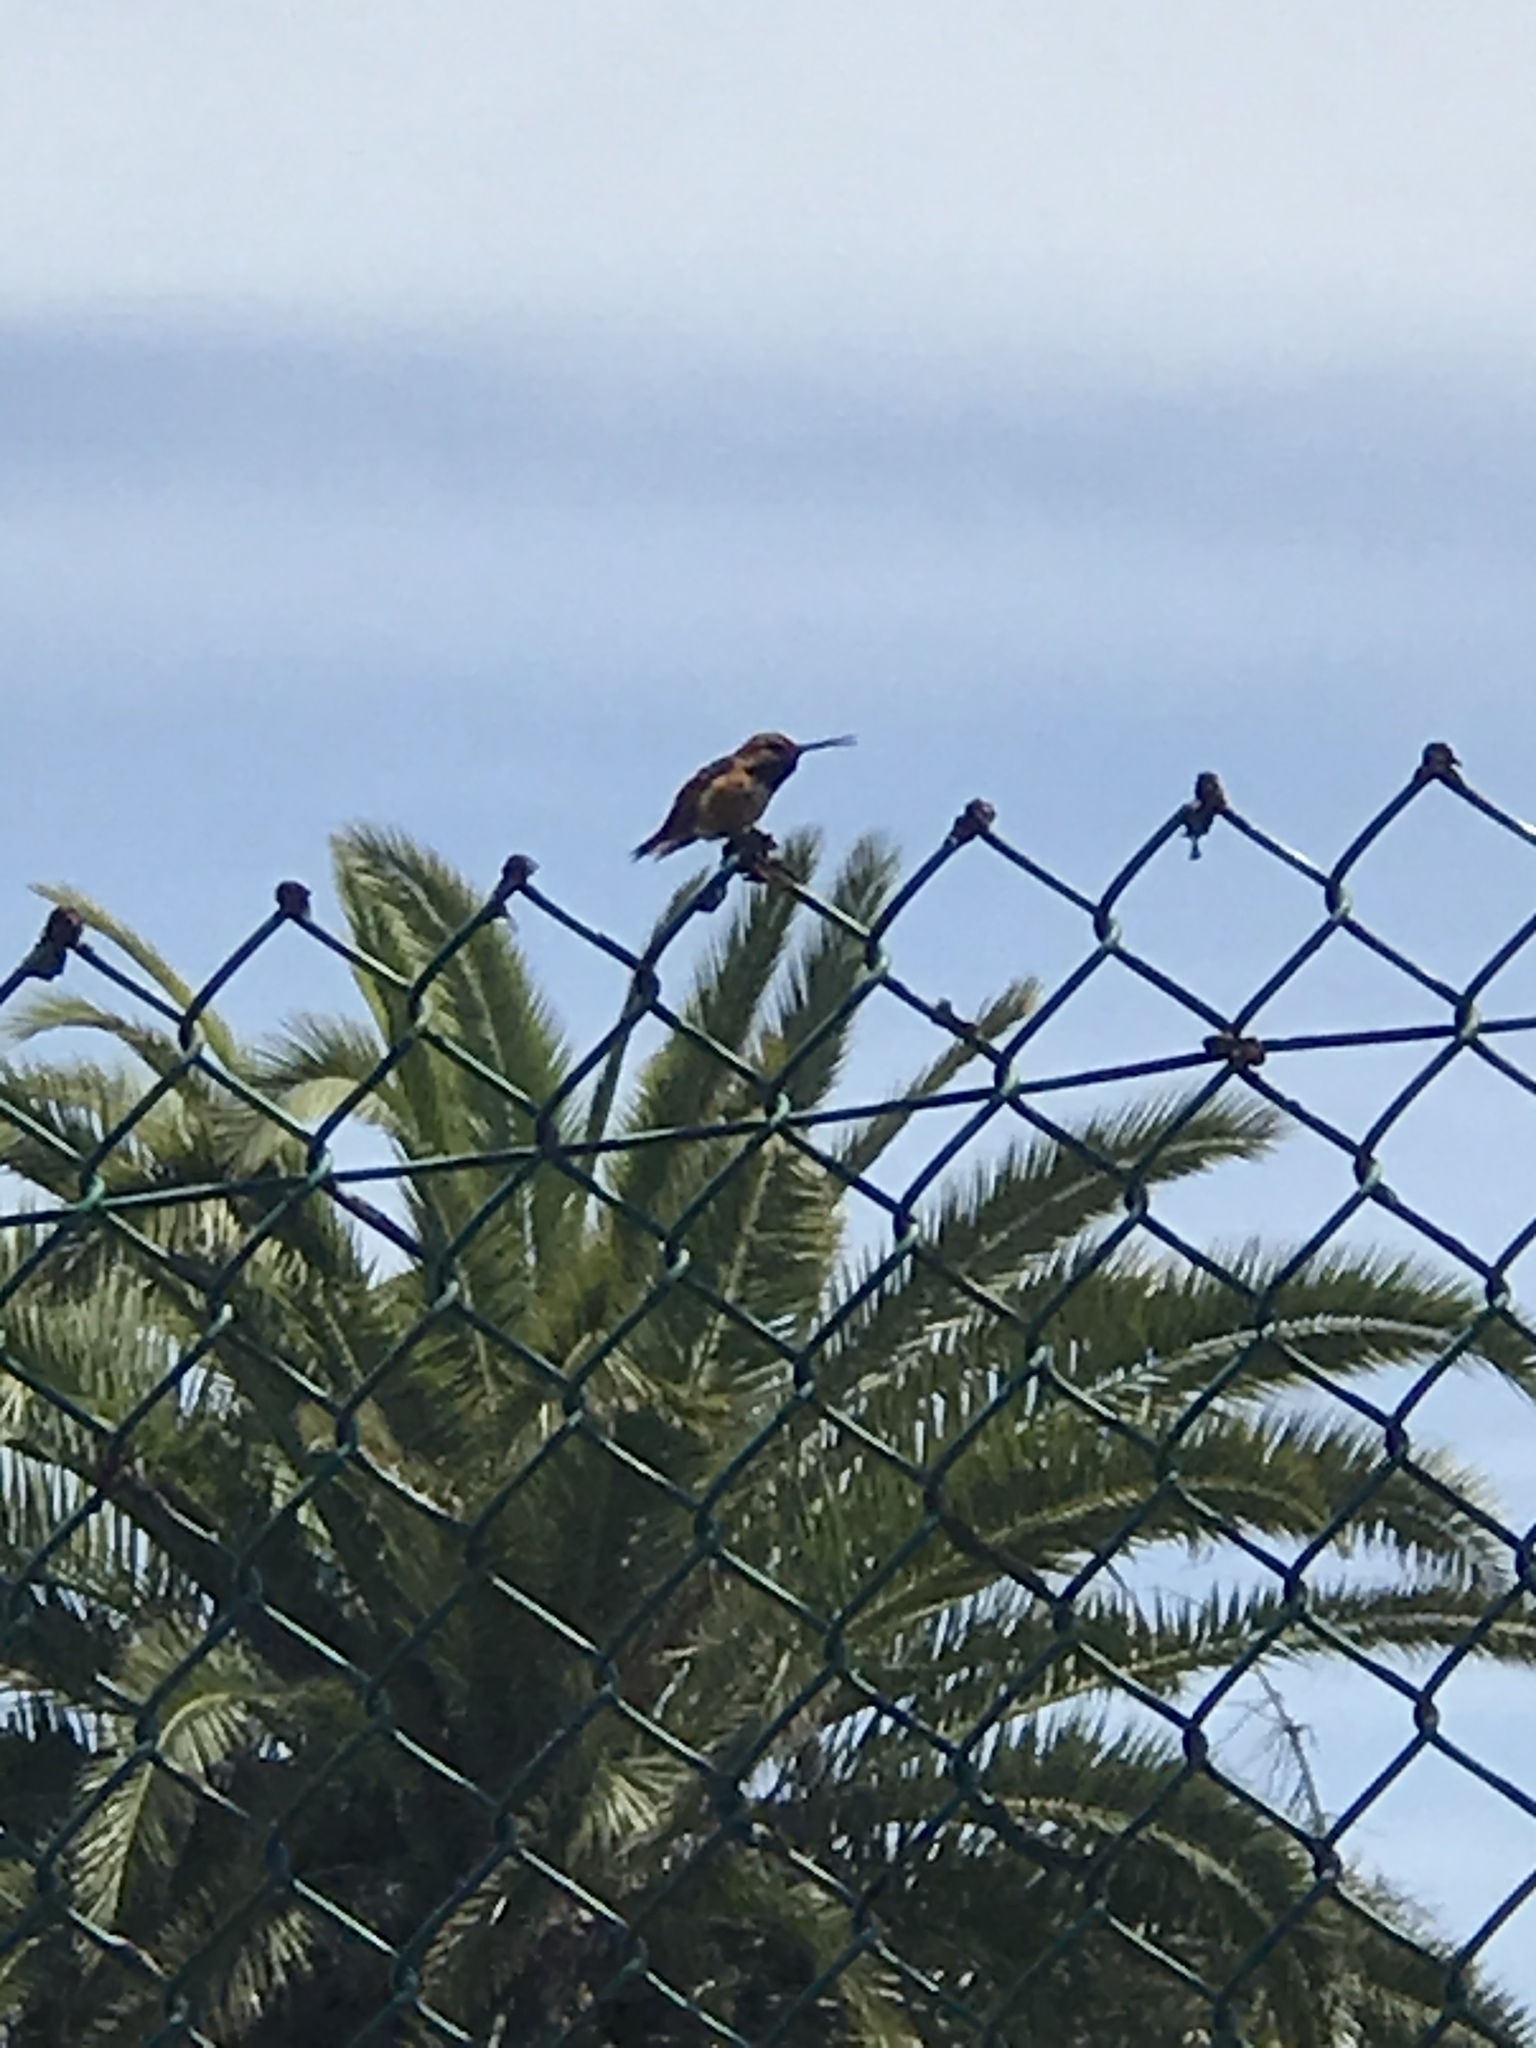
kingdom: Animalia
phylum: Chordata
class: Aves
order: Apodiformes
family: Trochilidae
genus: Selasphorus
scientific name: Selasphorus
